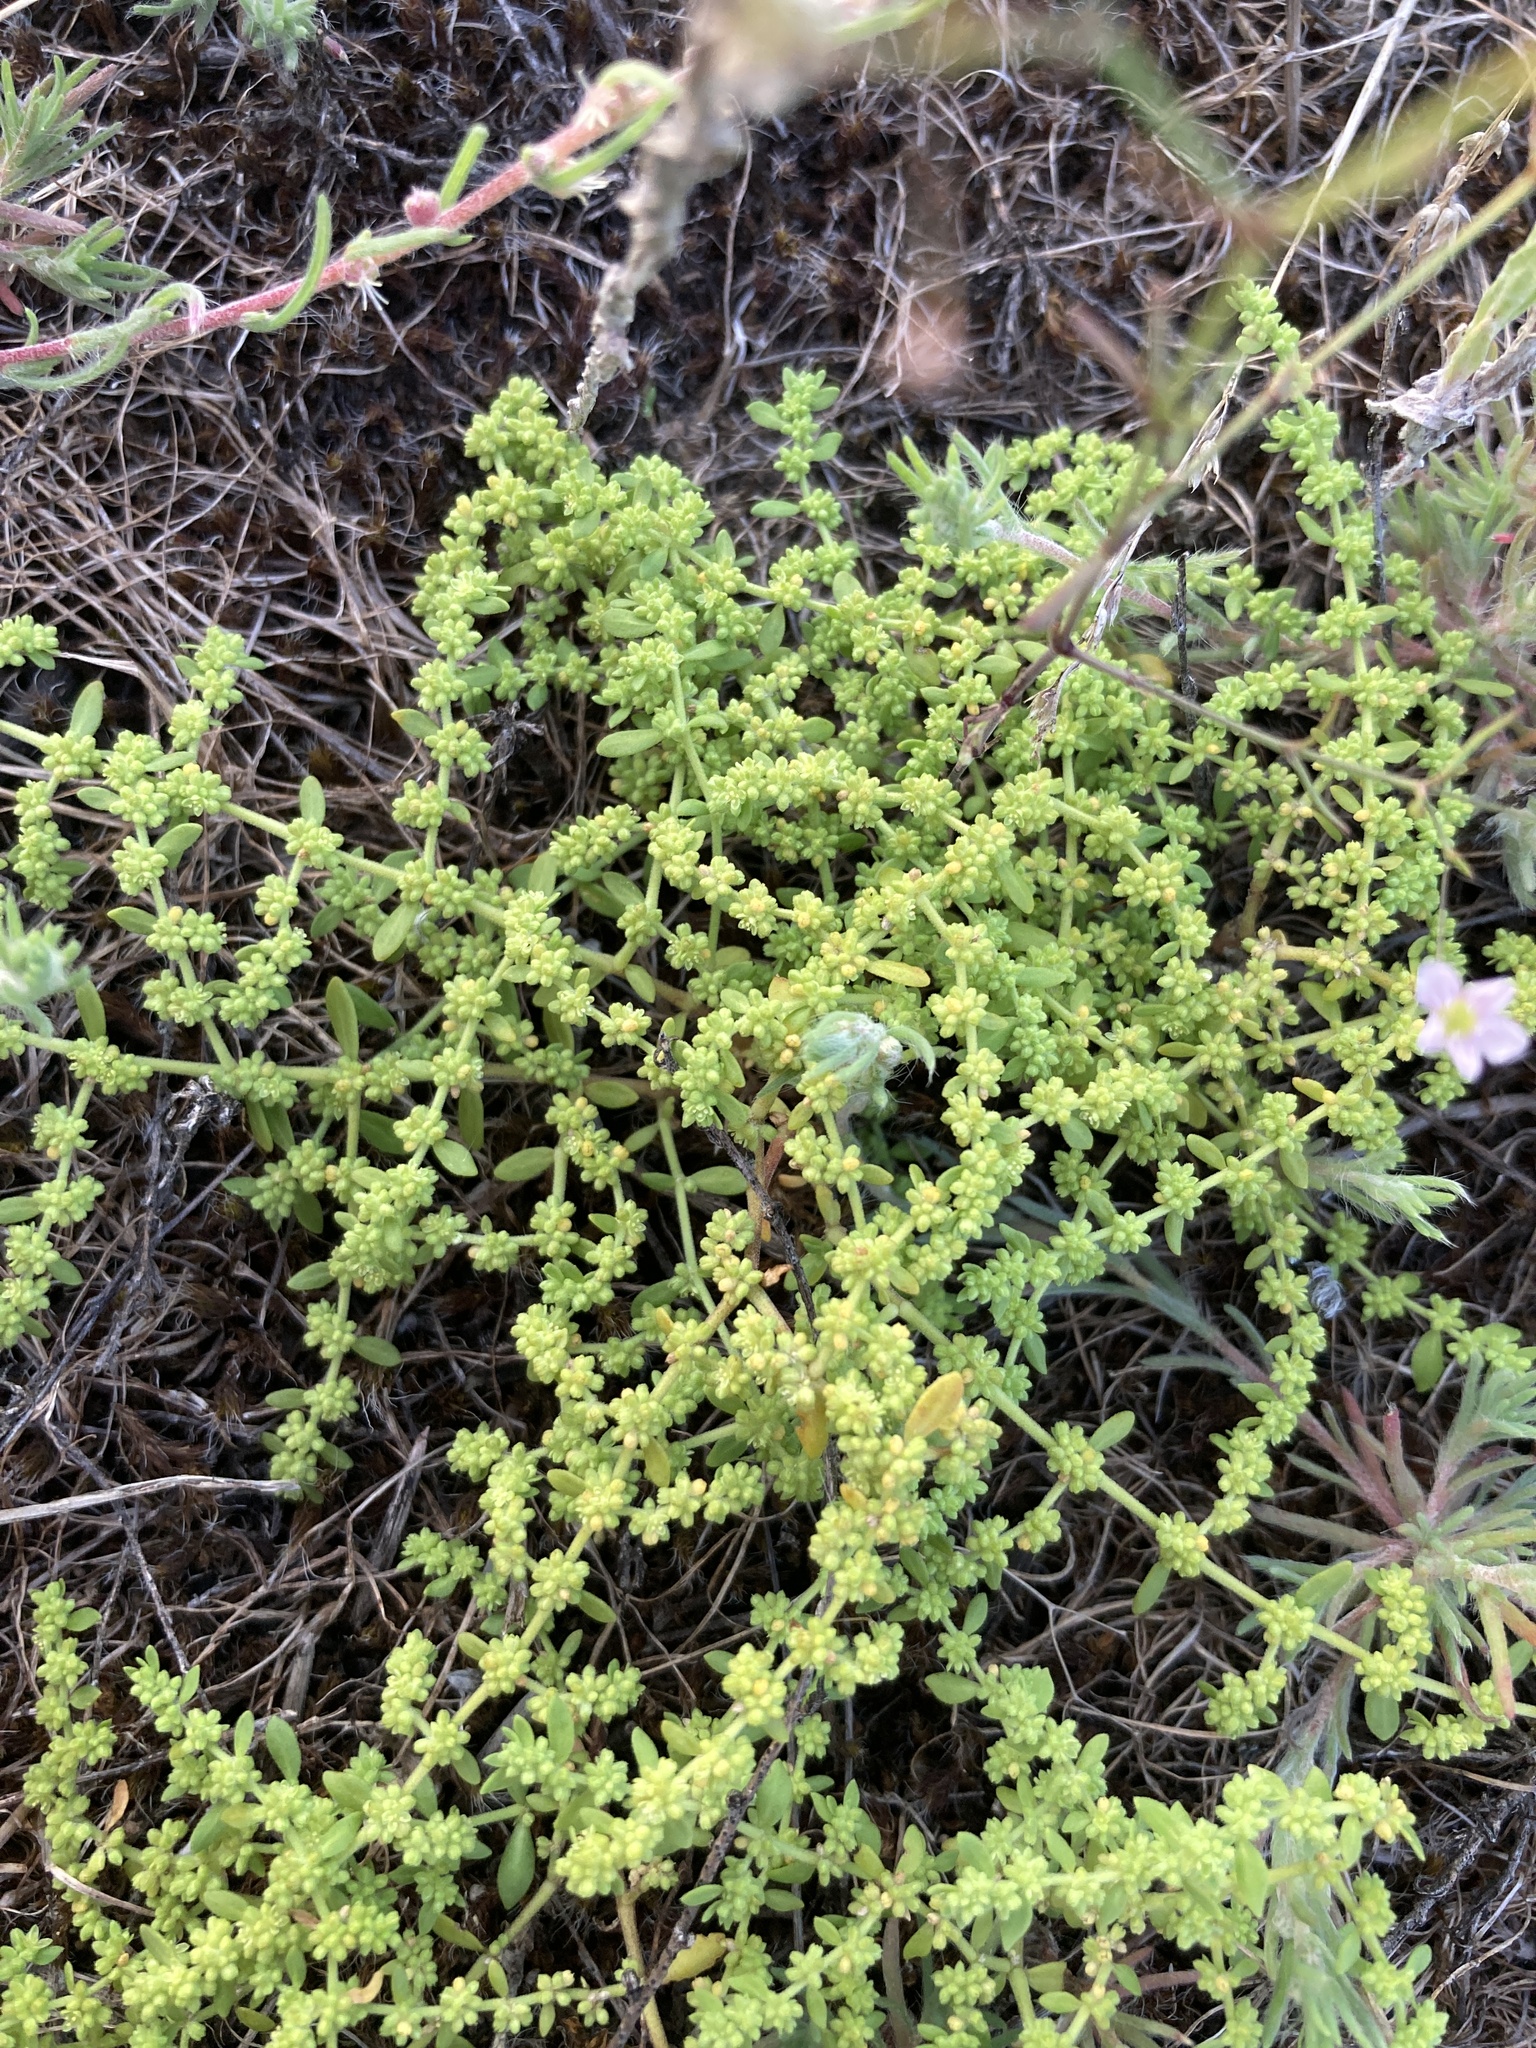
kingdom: Plantae
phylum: Tracheophyta
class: Magnoliopsida
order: Caryophyllales
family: Caryophyllaceae
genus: Herniaria
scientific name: Herniaria polygama
